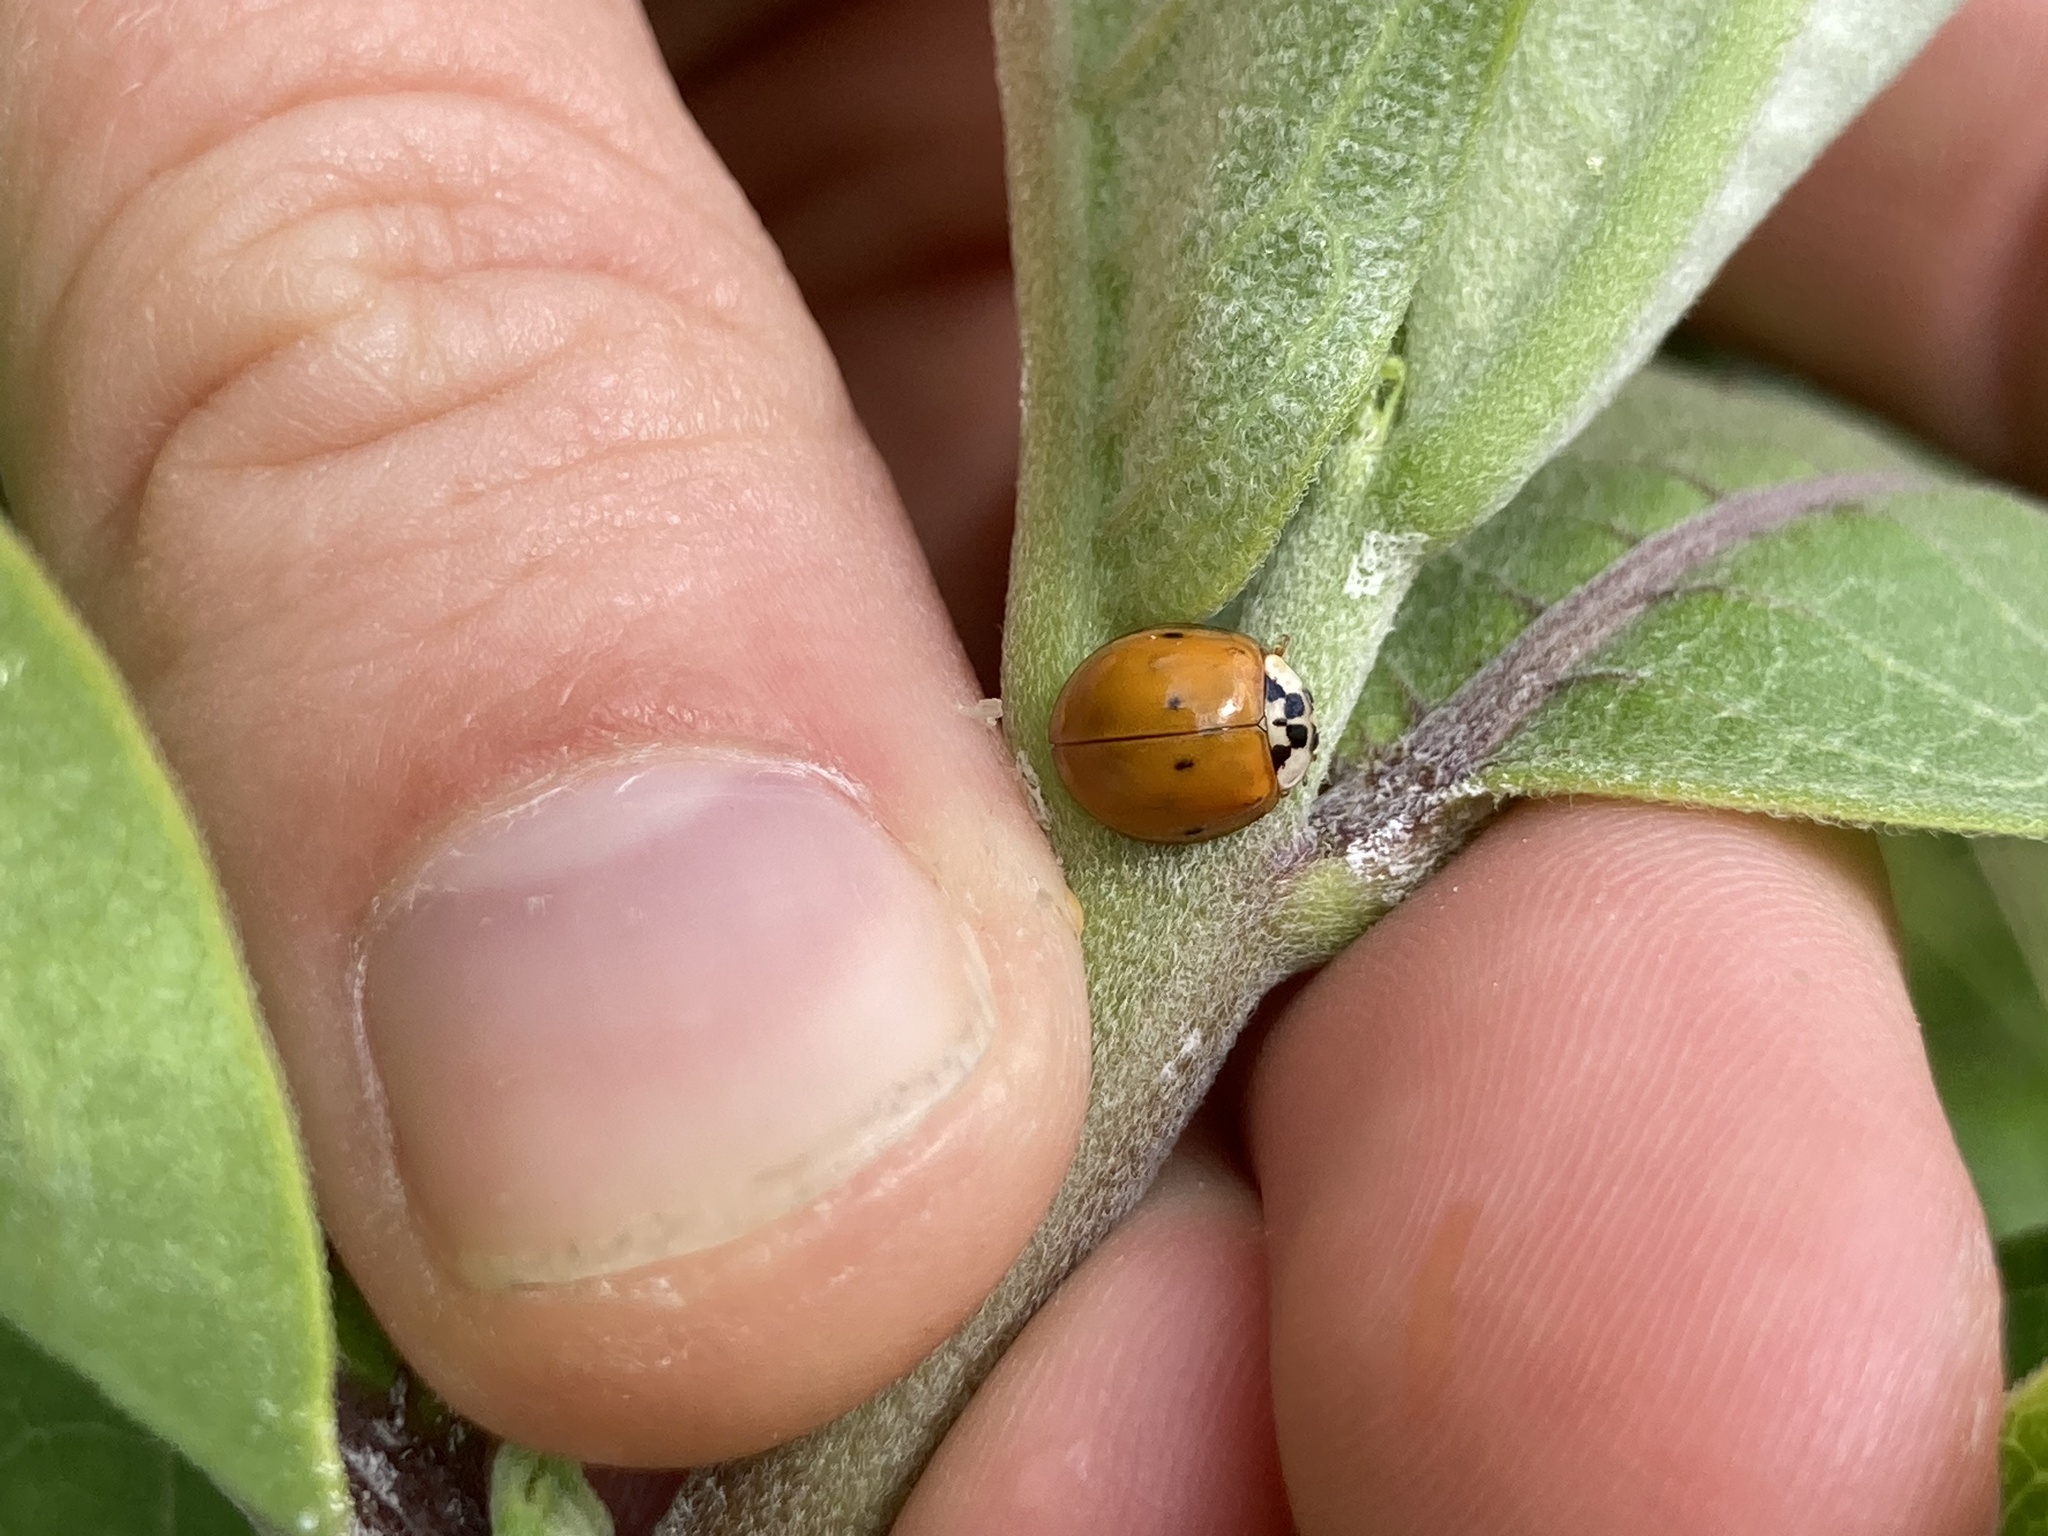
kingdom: Animalia
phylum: Arthropoda
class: Insecta
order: Coleoptera
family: Coccinellidae
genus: Harmonia
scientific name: Harmonia axyridis
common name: Harlequin ladybird
